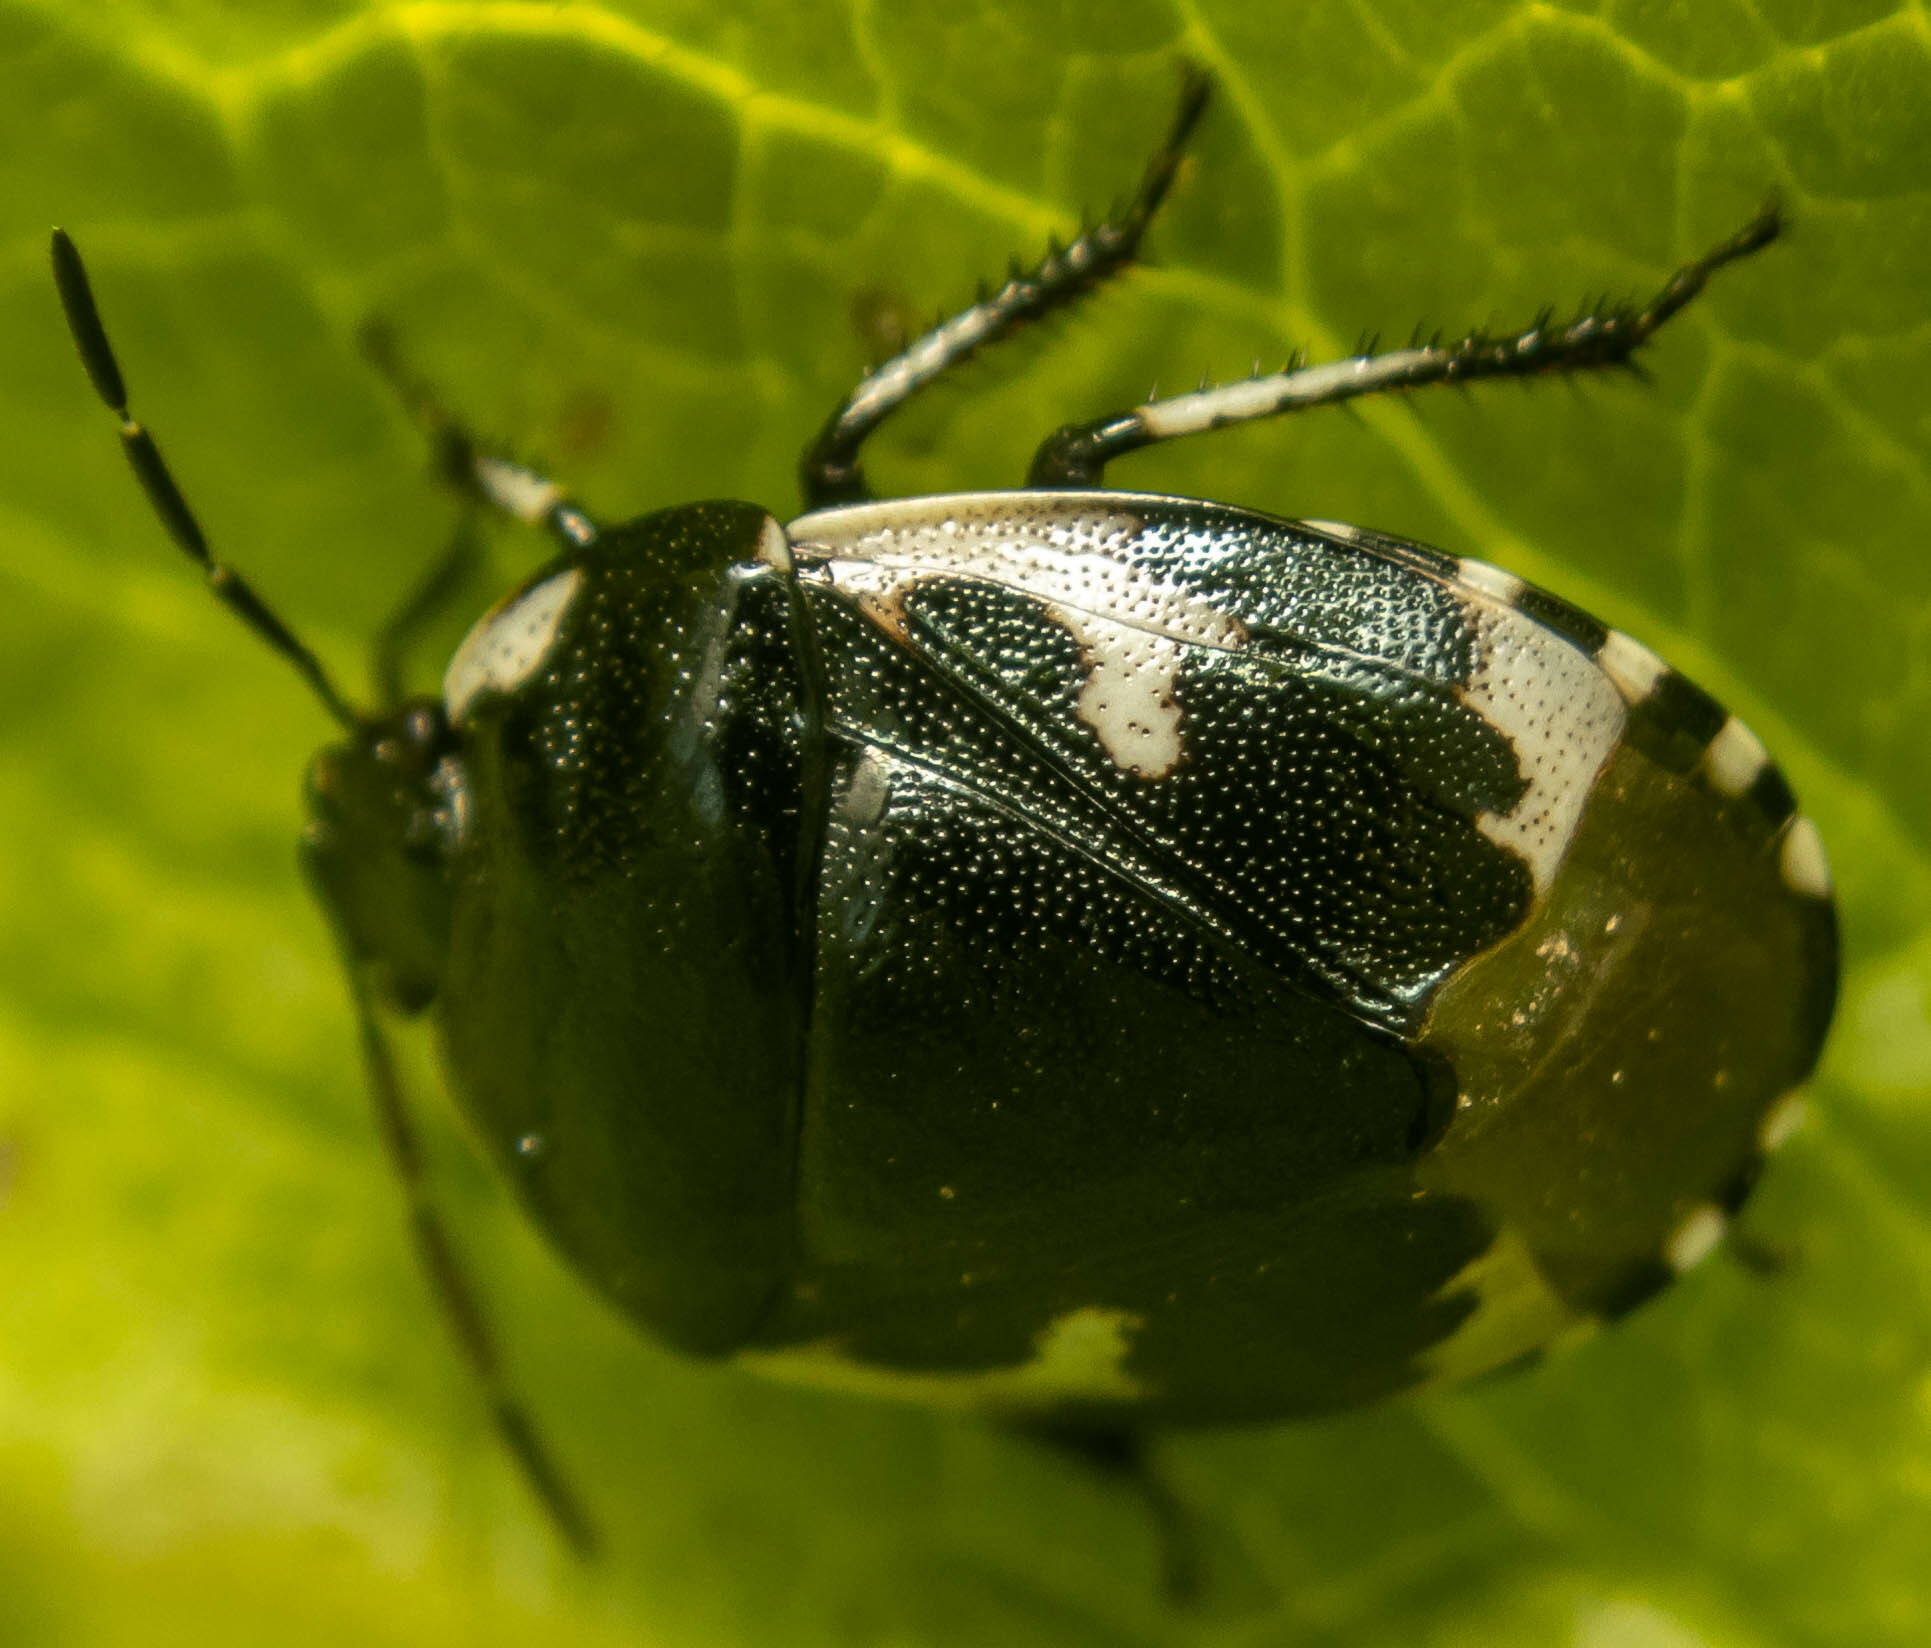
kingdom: Animalia
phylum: Arthropoda
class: Insecta
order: Hemiptera
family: Cydnidae
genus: Tritomegas
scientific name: Tritomegas bicolor
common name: Pied shieldbug
